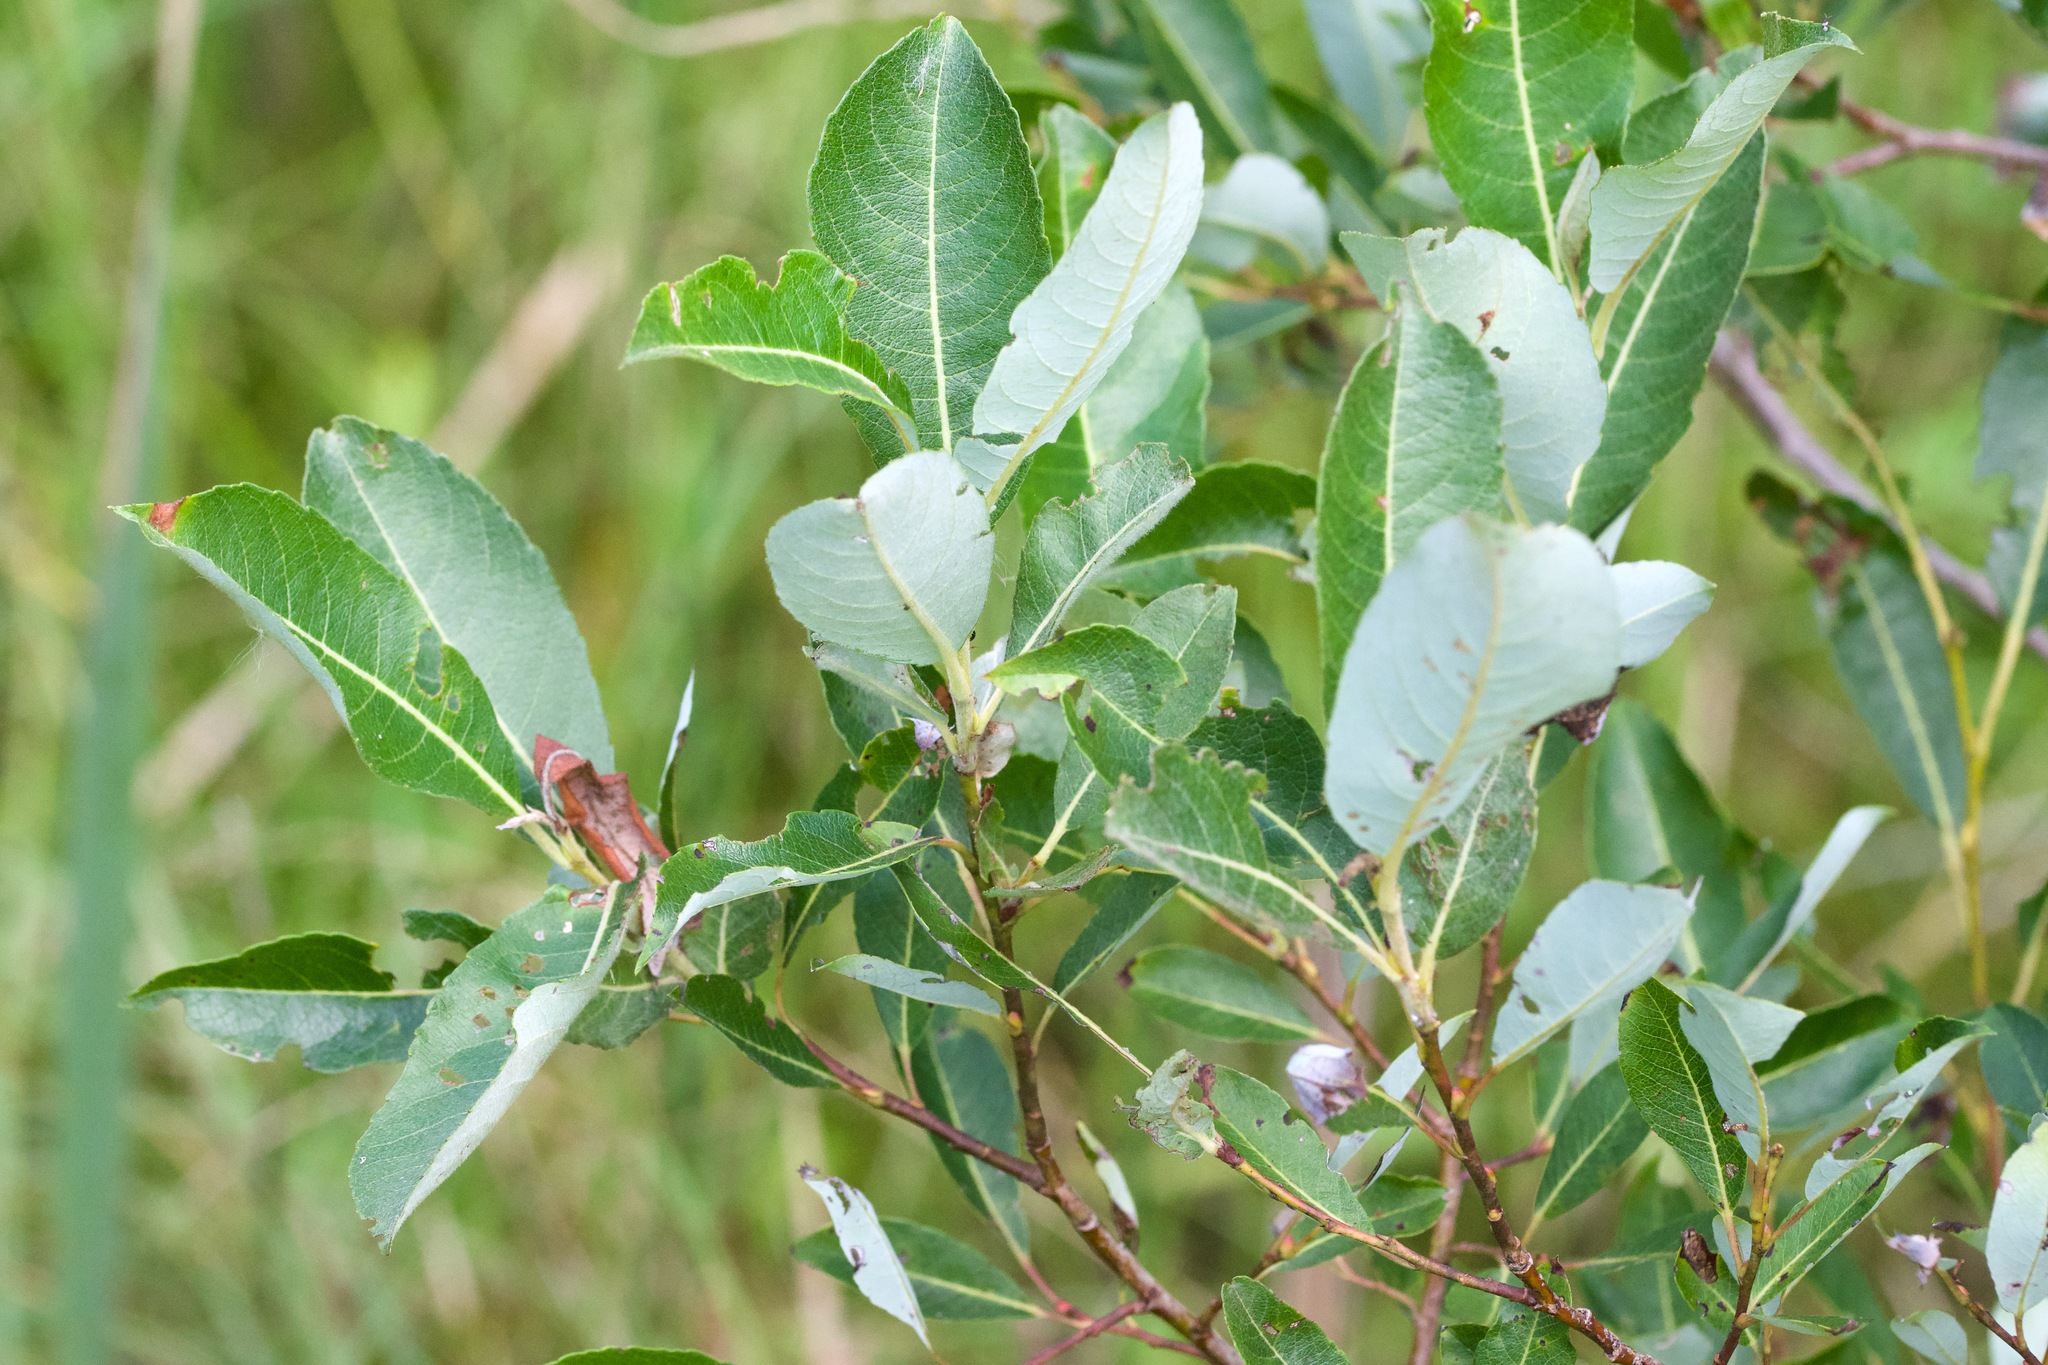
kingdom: Plantae
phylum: Tracheophyta
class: Magnoliopsida
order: Malpighiales
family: Salicaceae
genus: Salix
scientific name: Salix discolor
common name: Glaucous willow
